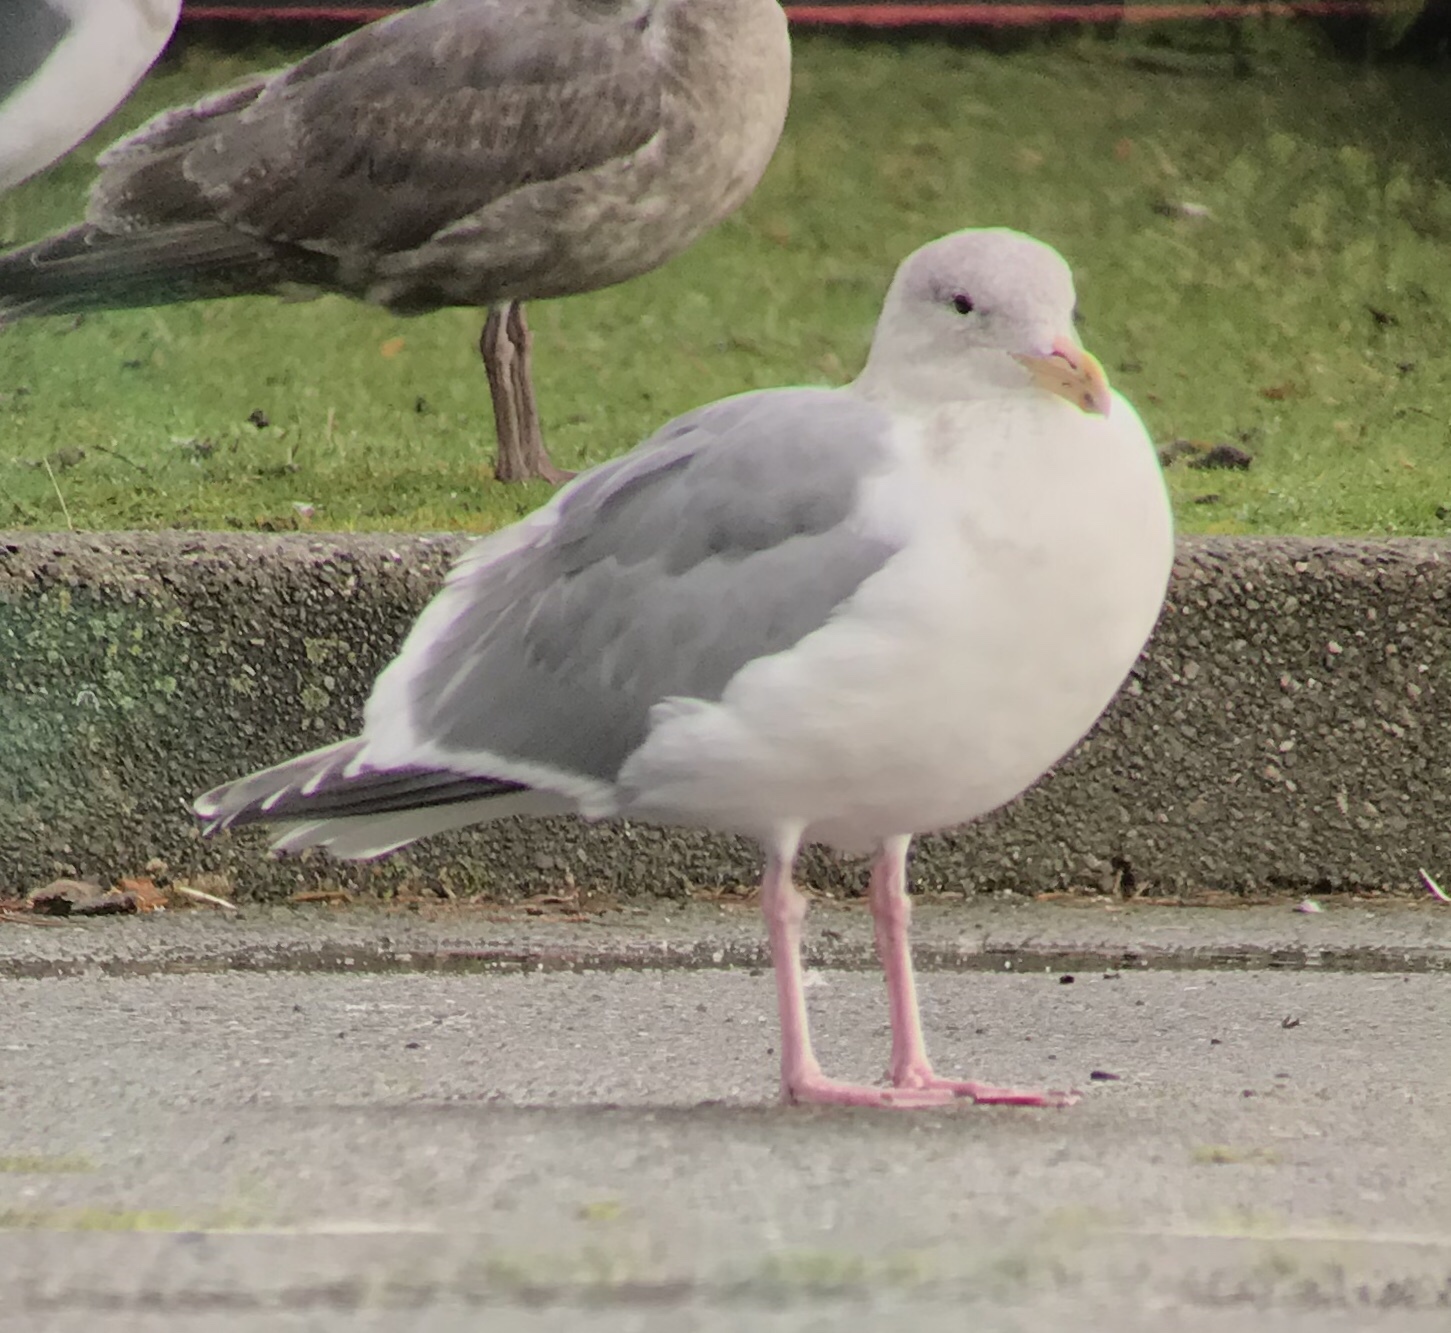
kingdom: Animalia
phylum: Chordata
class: Aves
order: Charadriiformes
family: Laridae
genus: Larus
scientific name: Larus
